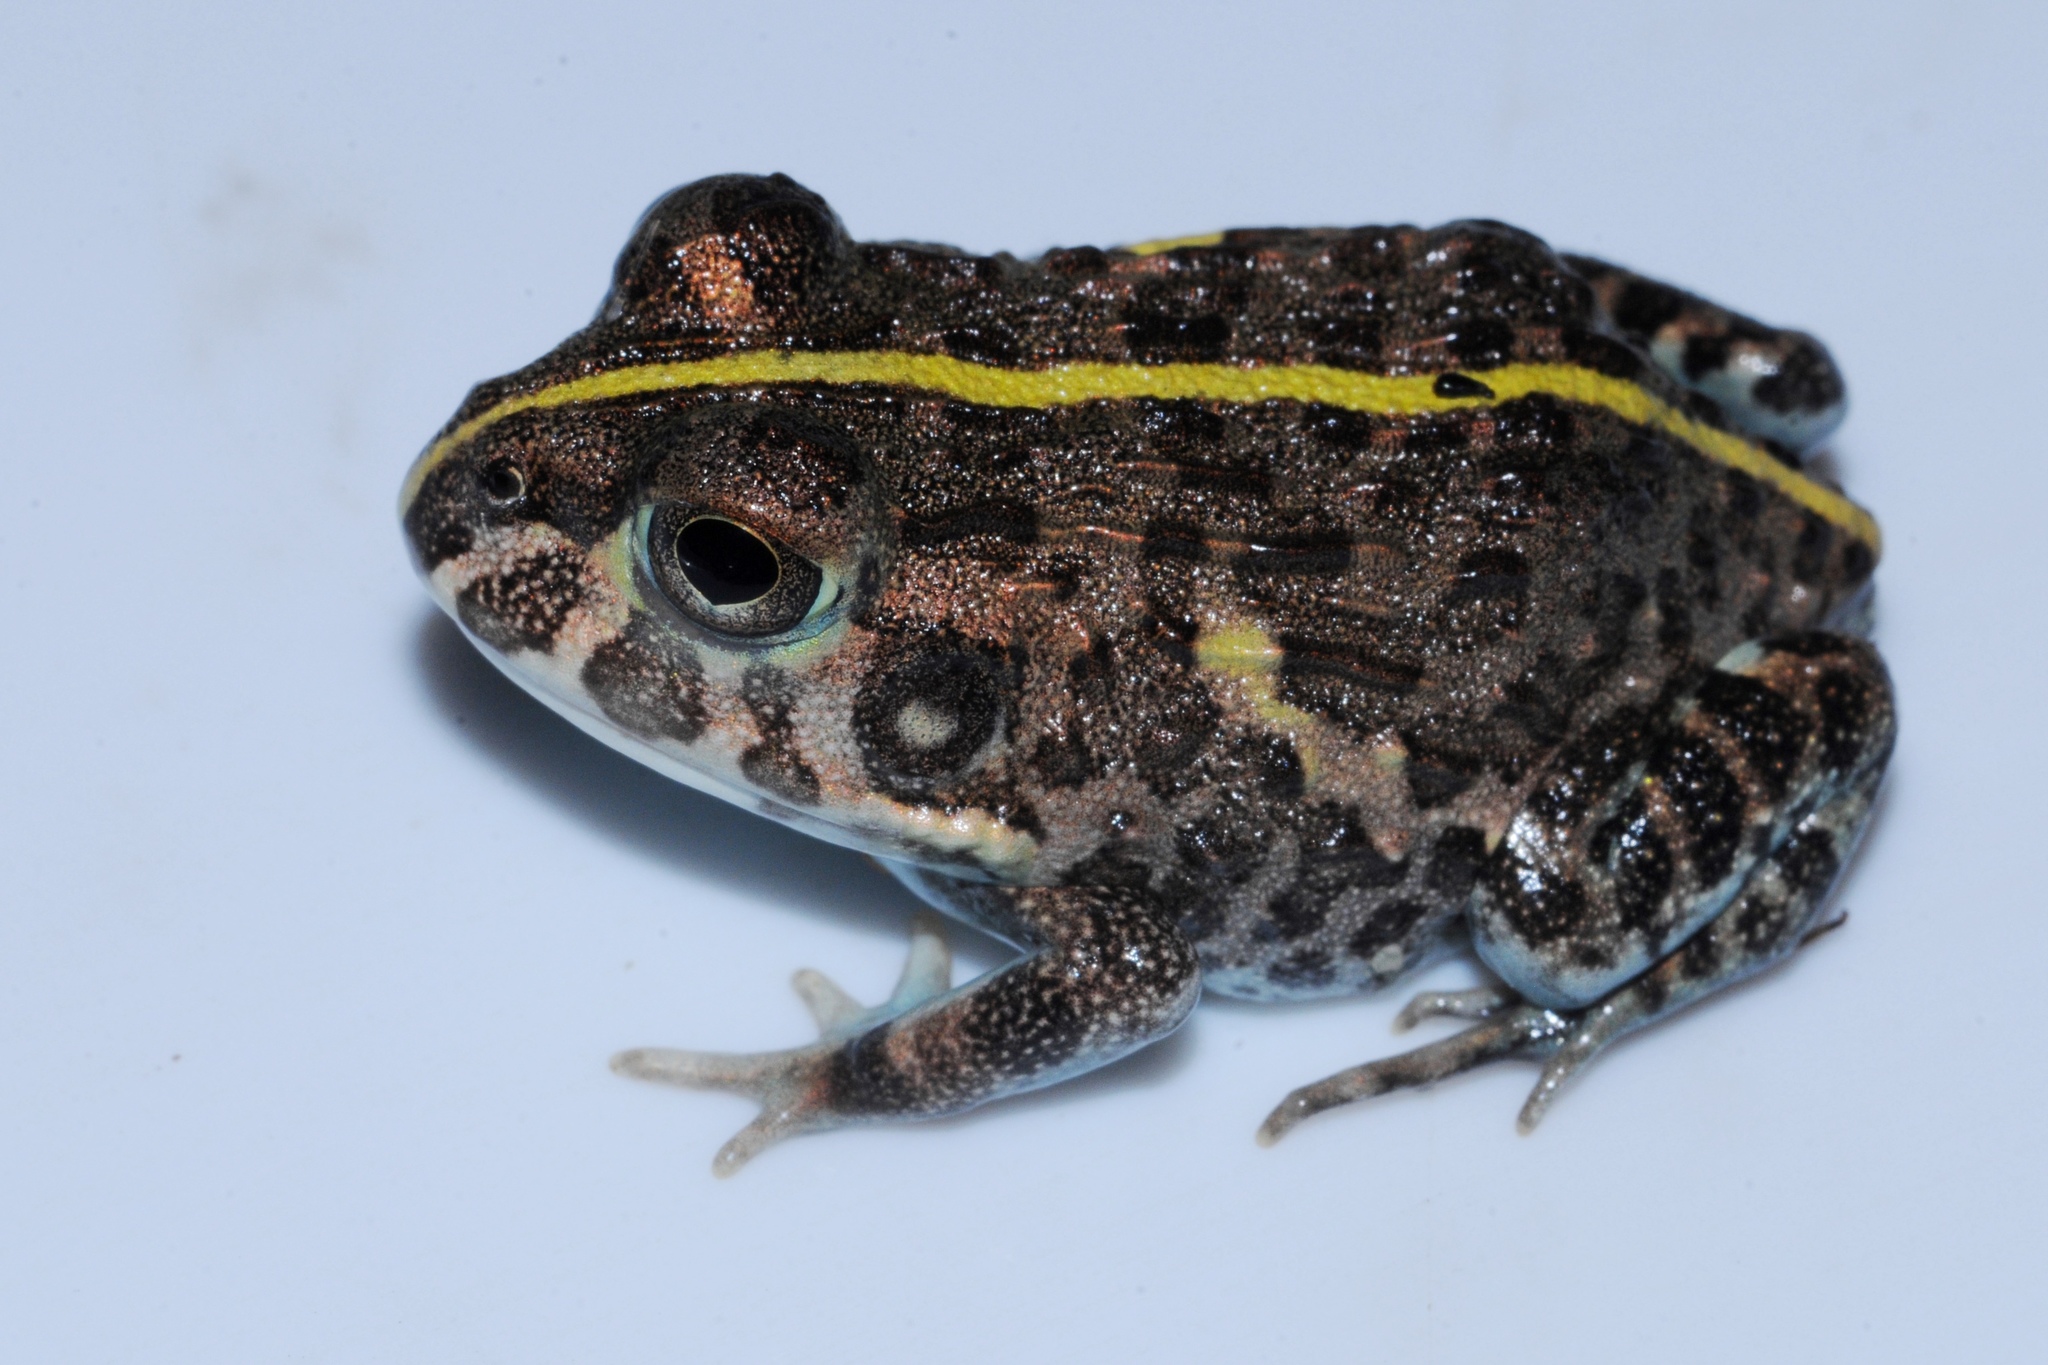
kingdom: Animalia
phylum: Chordata
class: Amphibia
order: Anura
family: Pyxicephalidae
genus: Pyxicephalus
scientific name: Pyxicephalus edulis
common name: Peter's bullfrog
